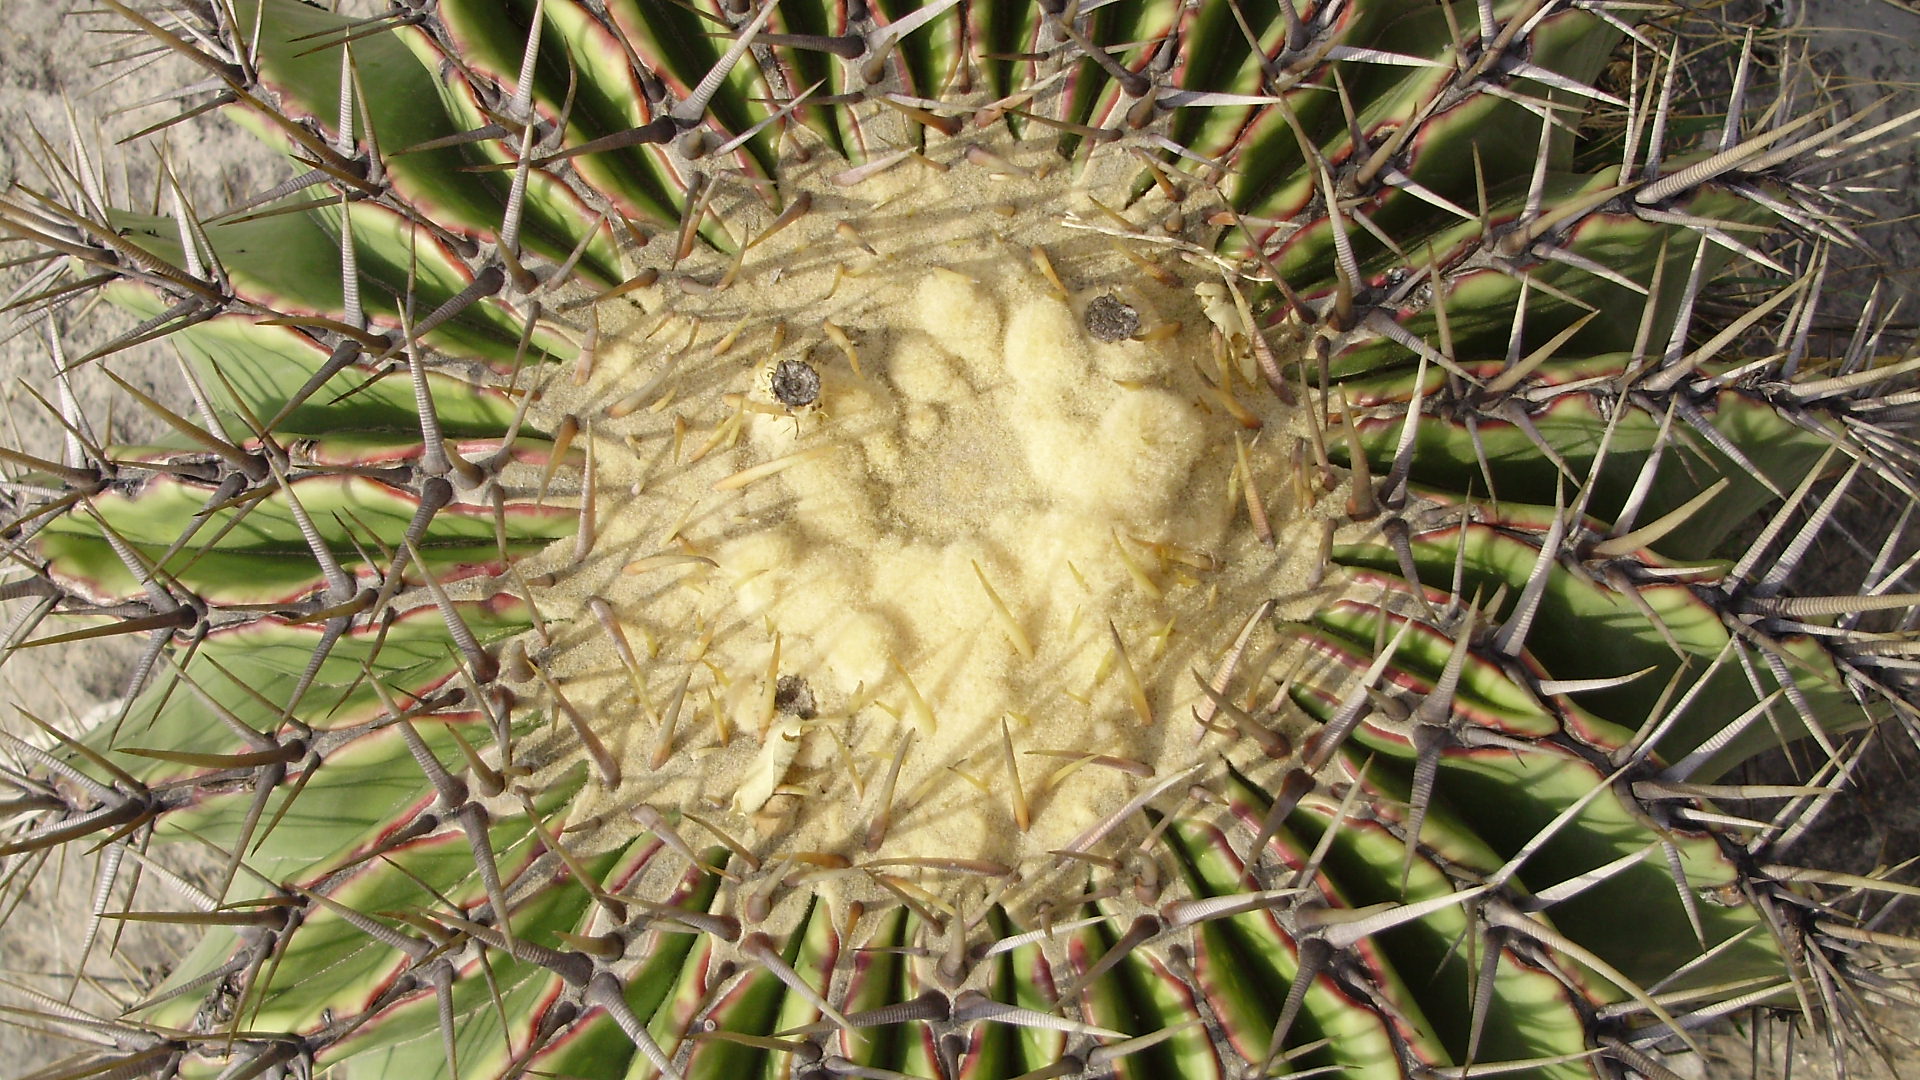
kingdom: Plantae
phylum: Tracheophyta
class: Magnoliopsida
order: Caryophyllales
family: Cactaceae
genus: Echinocactus
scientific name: Echinocactus platyacanthus
